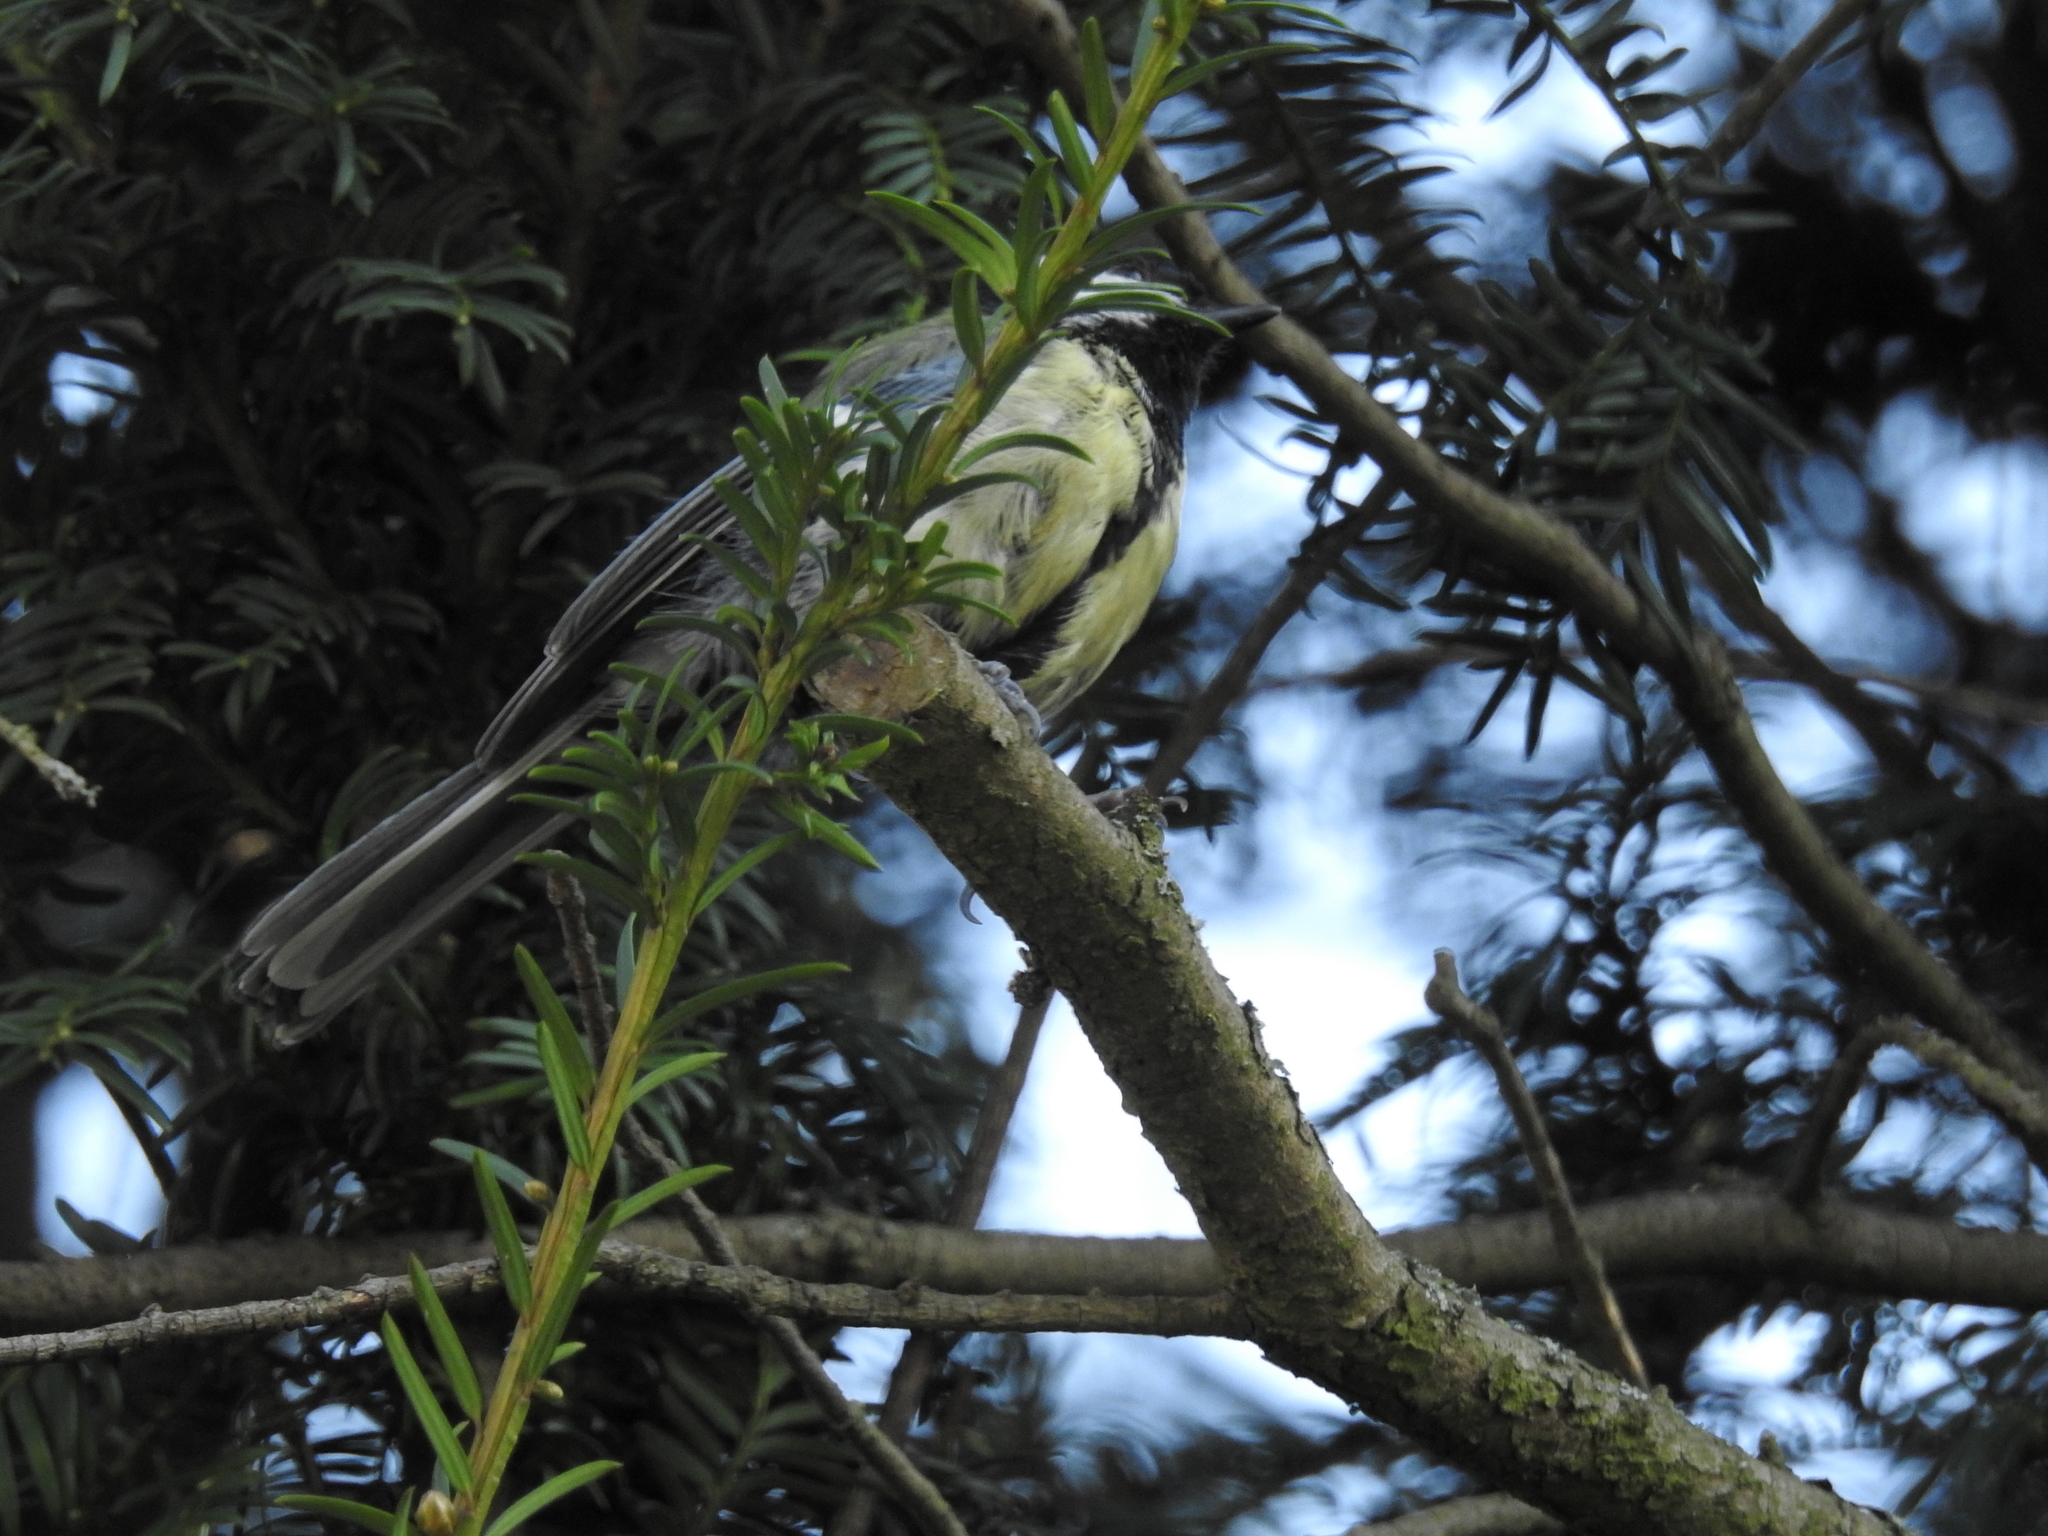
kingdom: Animalia
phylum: Chordata
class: Aves
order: Passeriformes
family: Paridae
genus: Parus
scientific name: Parus major
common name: Great tit
